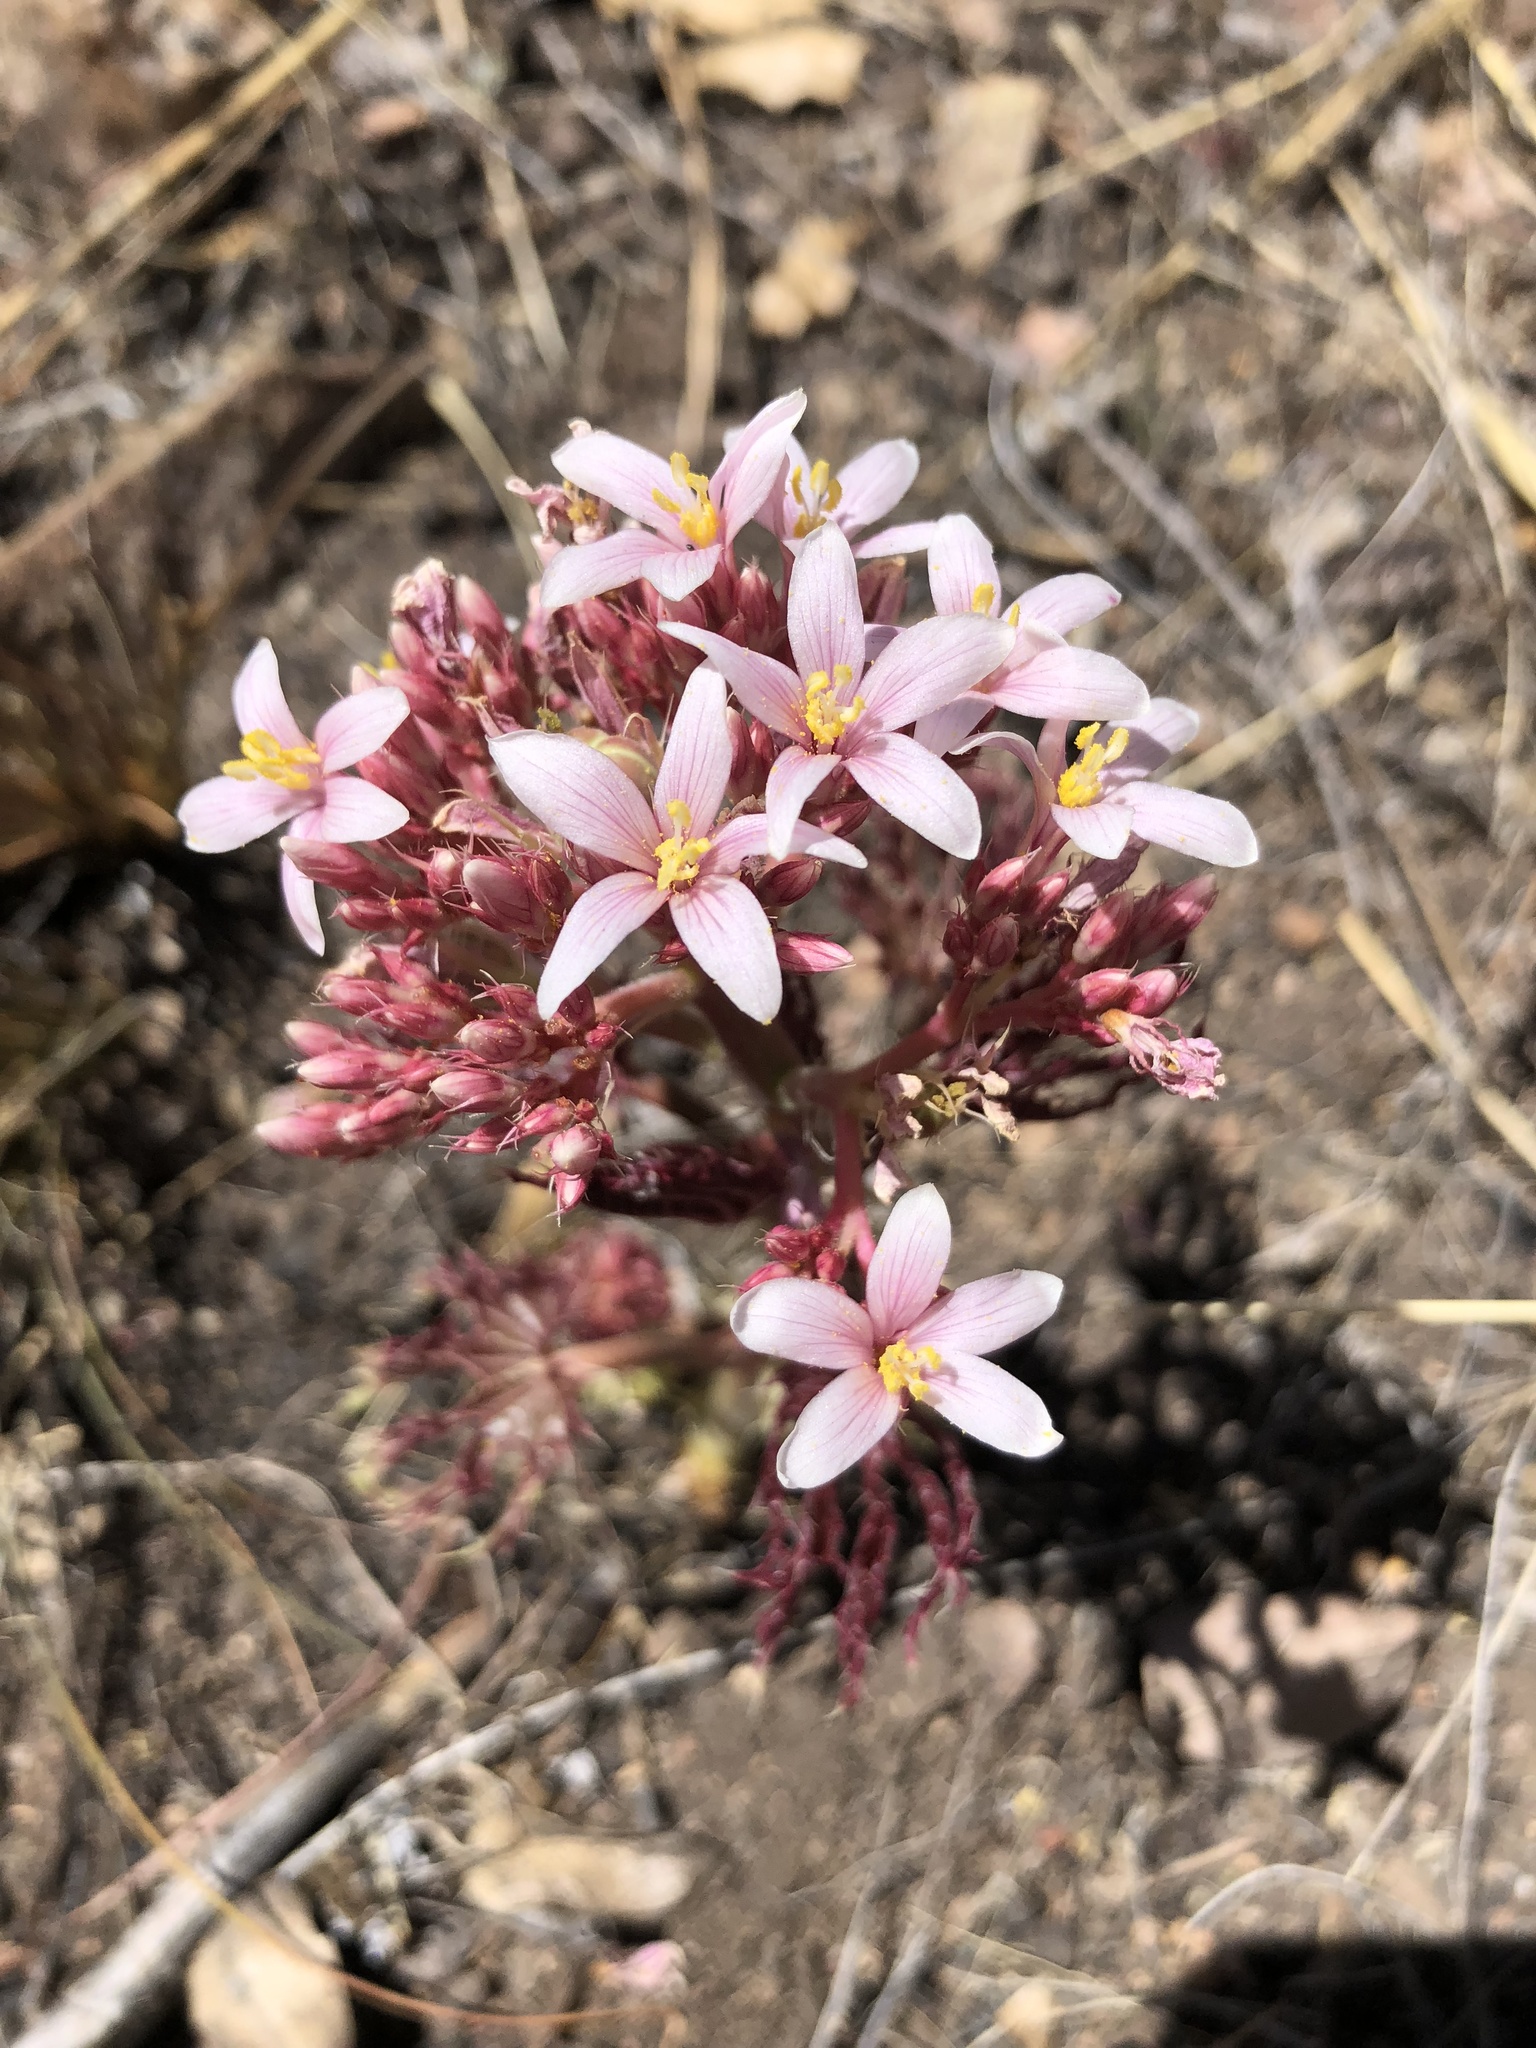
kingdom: Plantae
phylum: Tracheophyta
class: Magnoliopsida
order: Malpighiales
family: Euphorbiaceae
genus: Jatropha
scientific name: Jatropha macrorhiza
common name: Ragged nettlespurge
